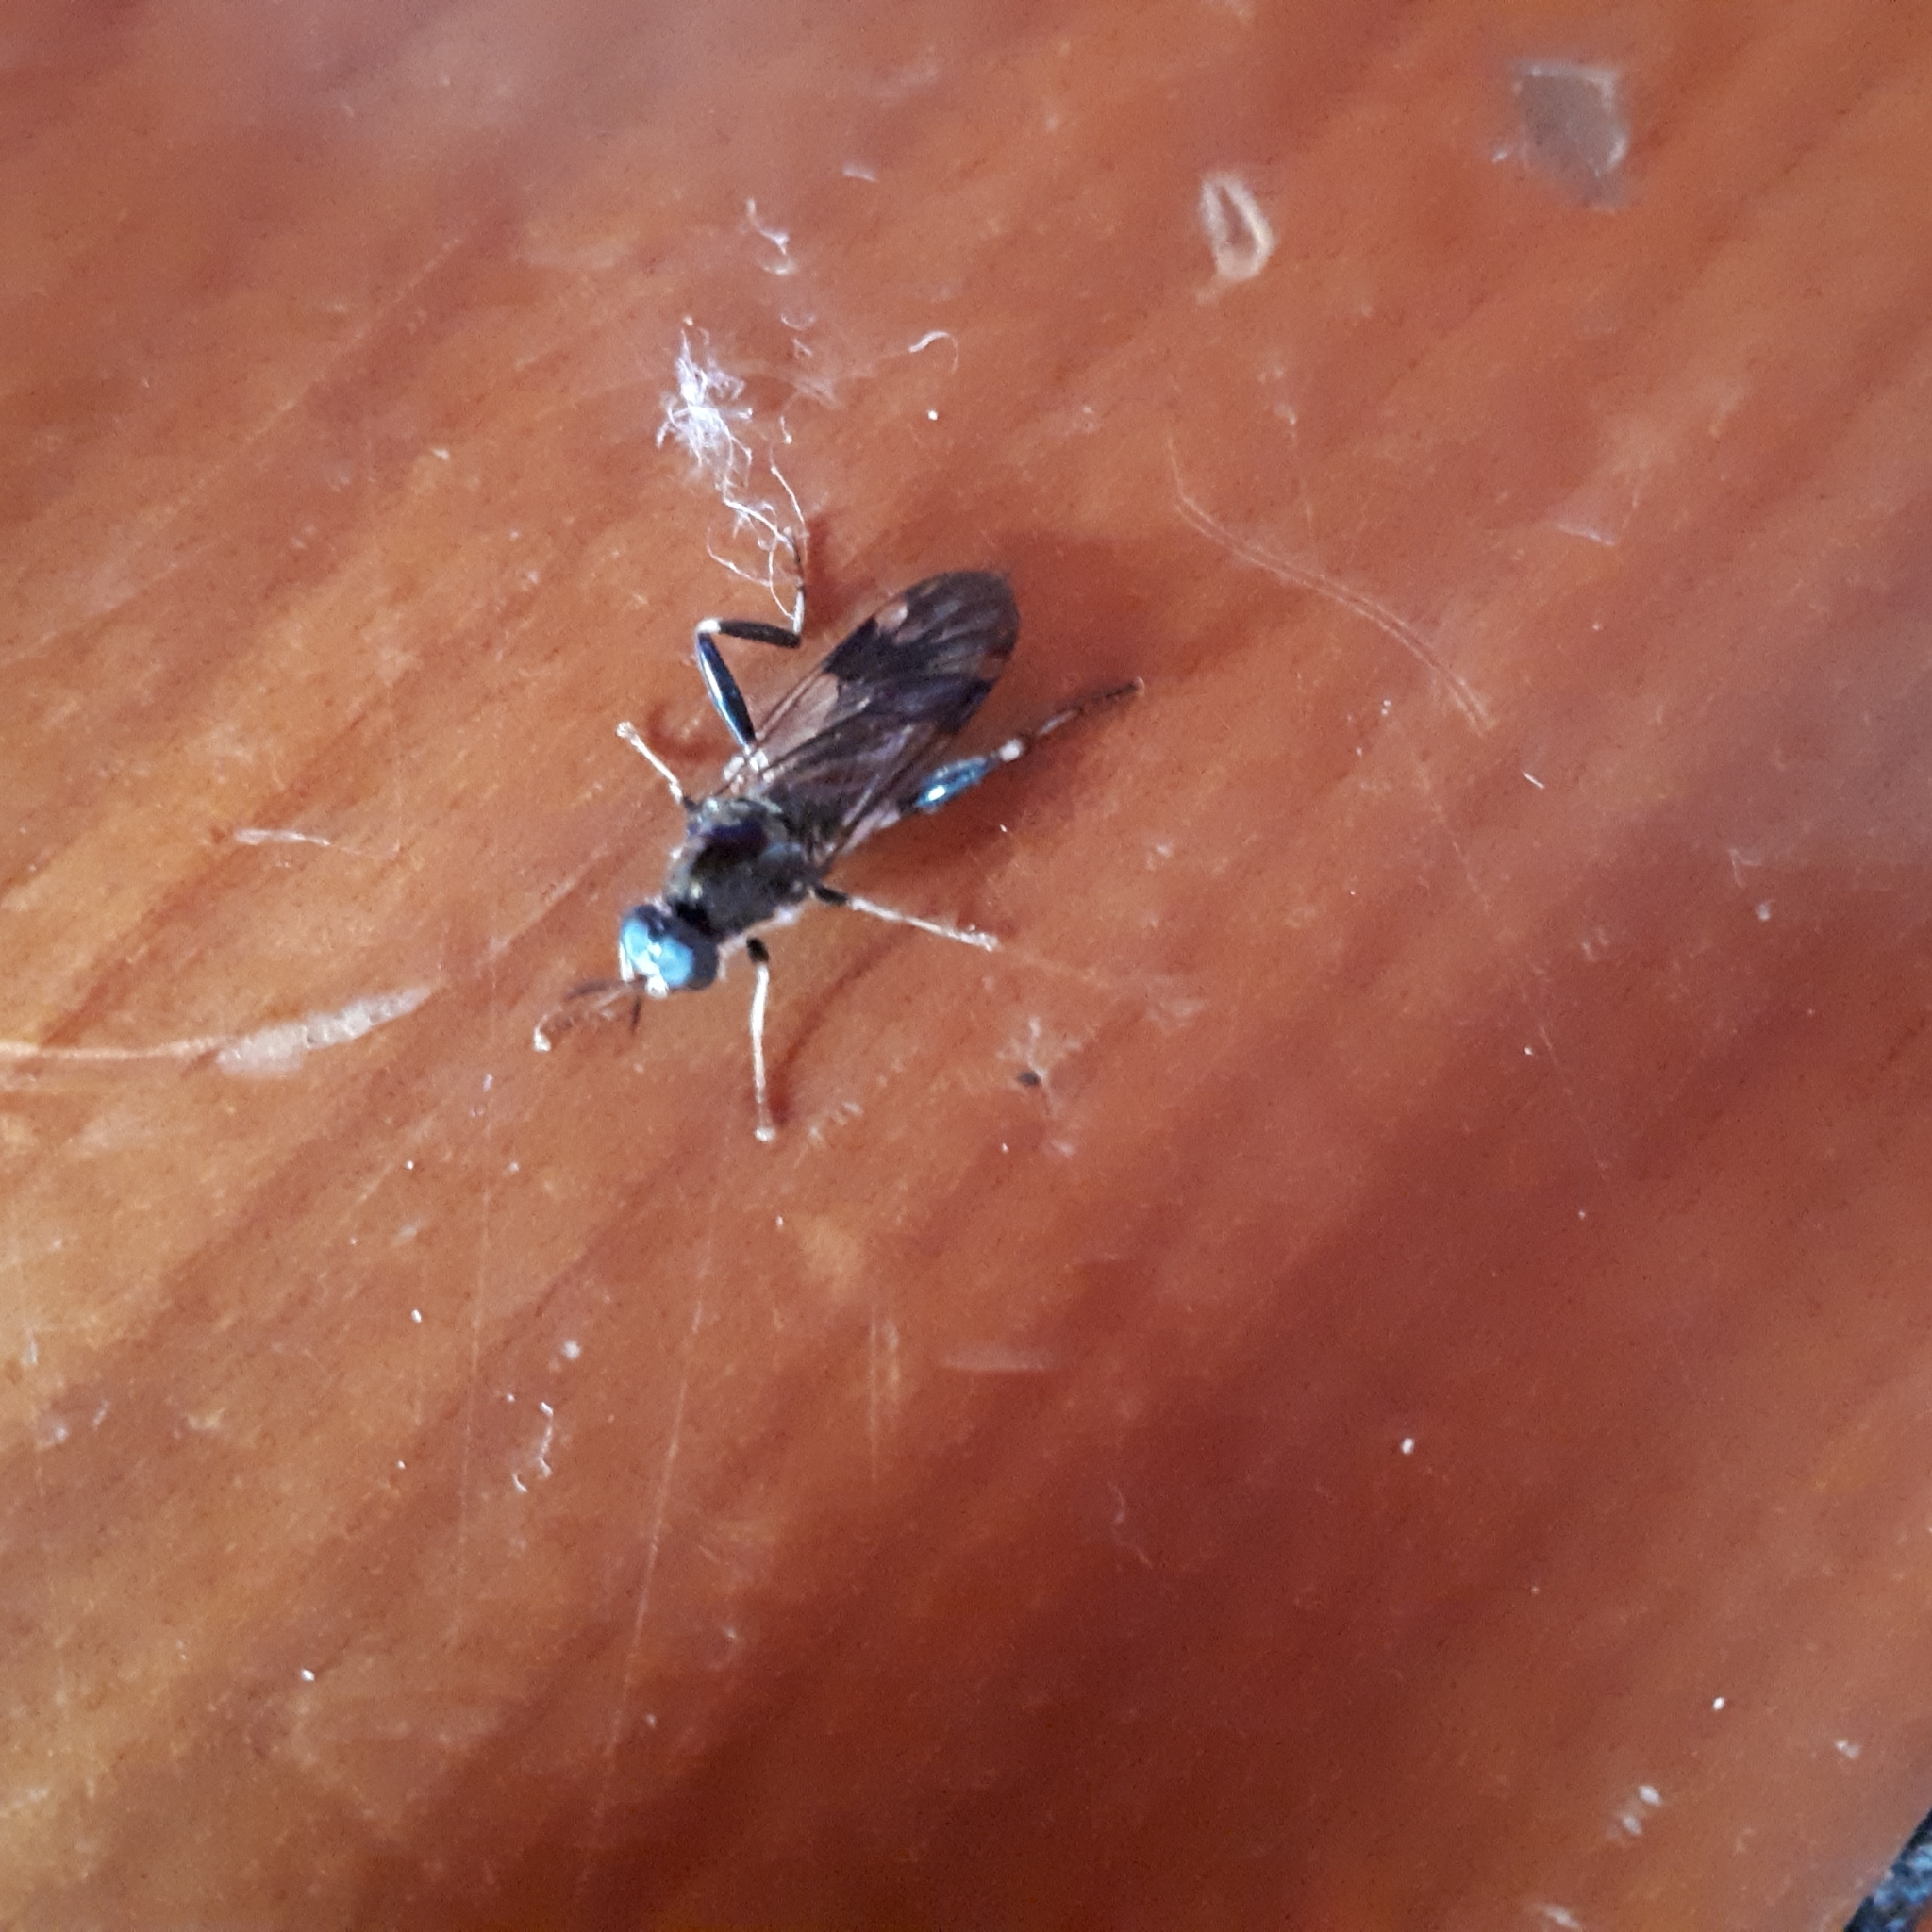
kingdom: Animalia
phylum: Arthropoda
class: Insecta
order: Diptera
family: Stratiomyidae
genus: Exaireta
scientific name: Exaireta spinigera
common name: Blue soldier fly
